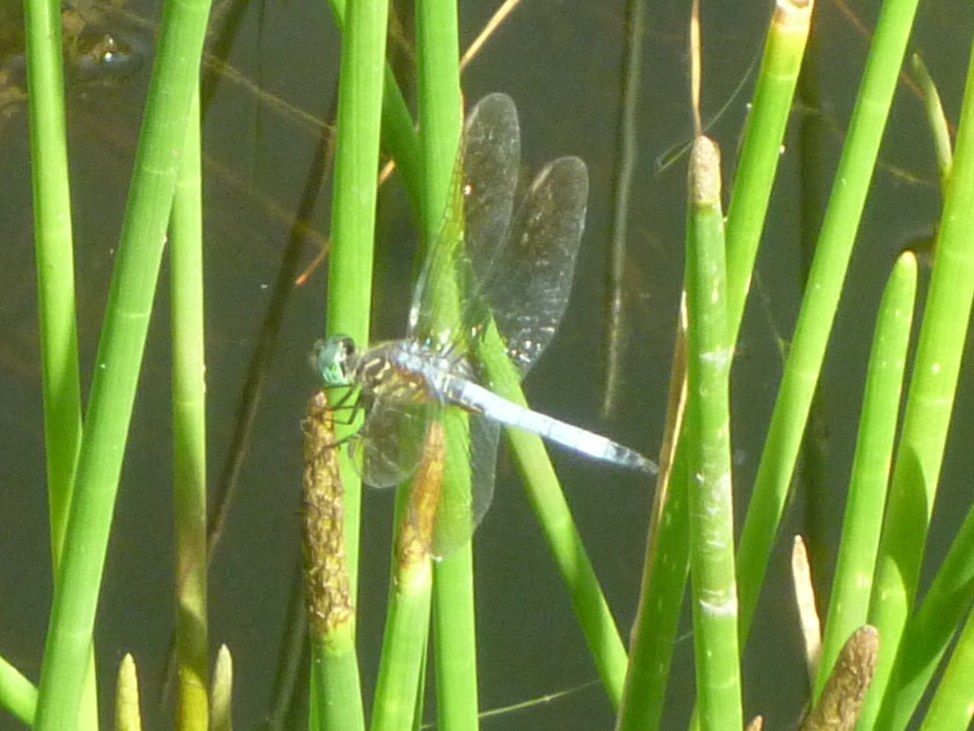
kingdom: Animalia
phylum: Arthropoda
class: Insecta
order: Odonata
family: Libellulidae
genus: Pachydiplax
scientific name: Pachydiplax longipennis
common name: Blue dasher
